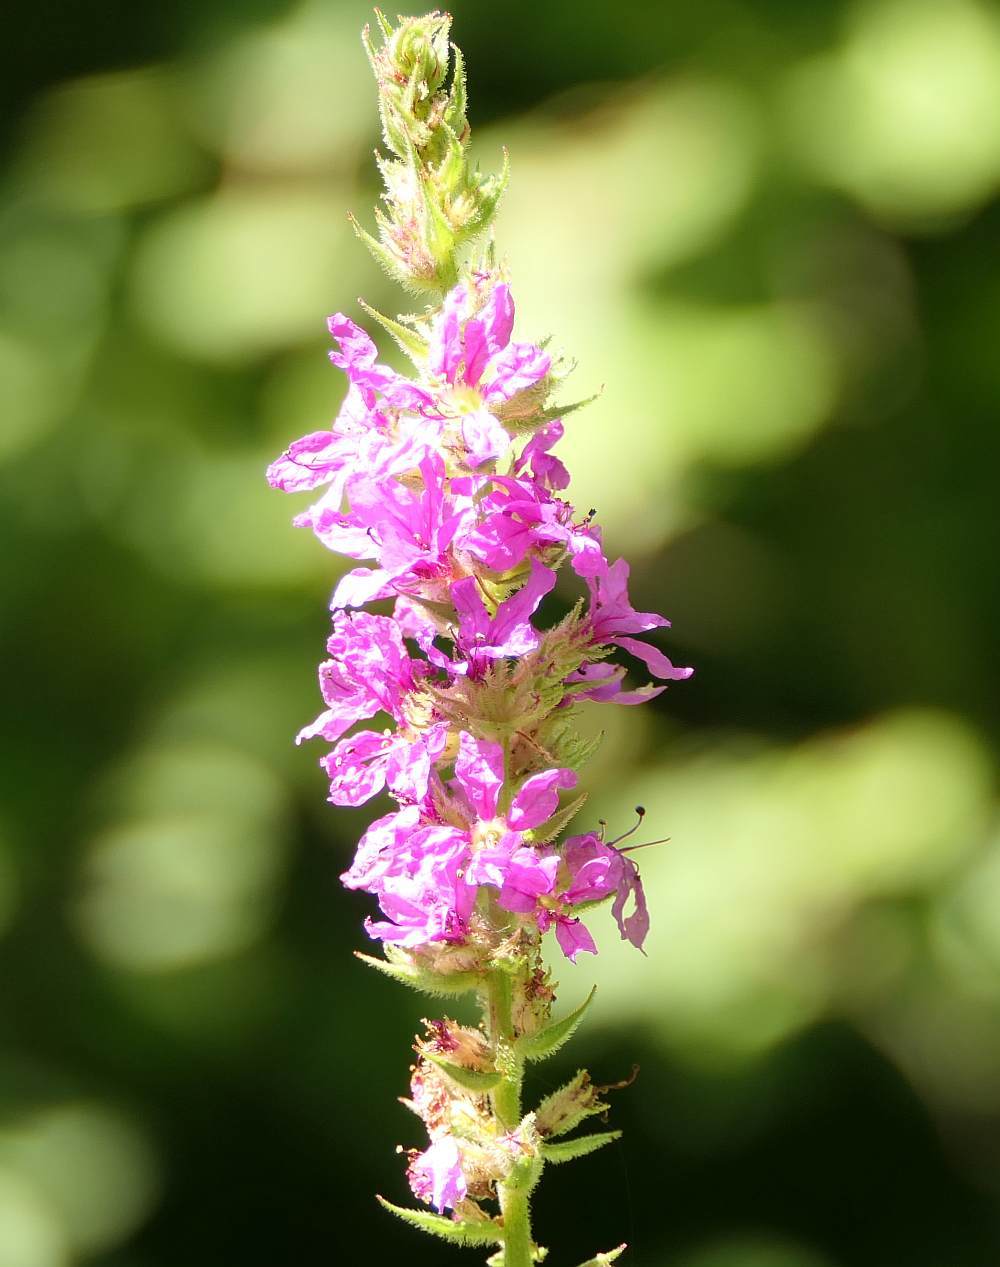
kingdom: Plantae
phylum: Tracheophyta
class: Magnoliopsida
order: Myrtales
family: Lythraceae
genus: Lythrum
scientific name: Lythrum salicaria
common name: Purple loosestrife
